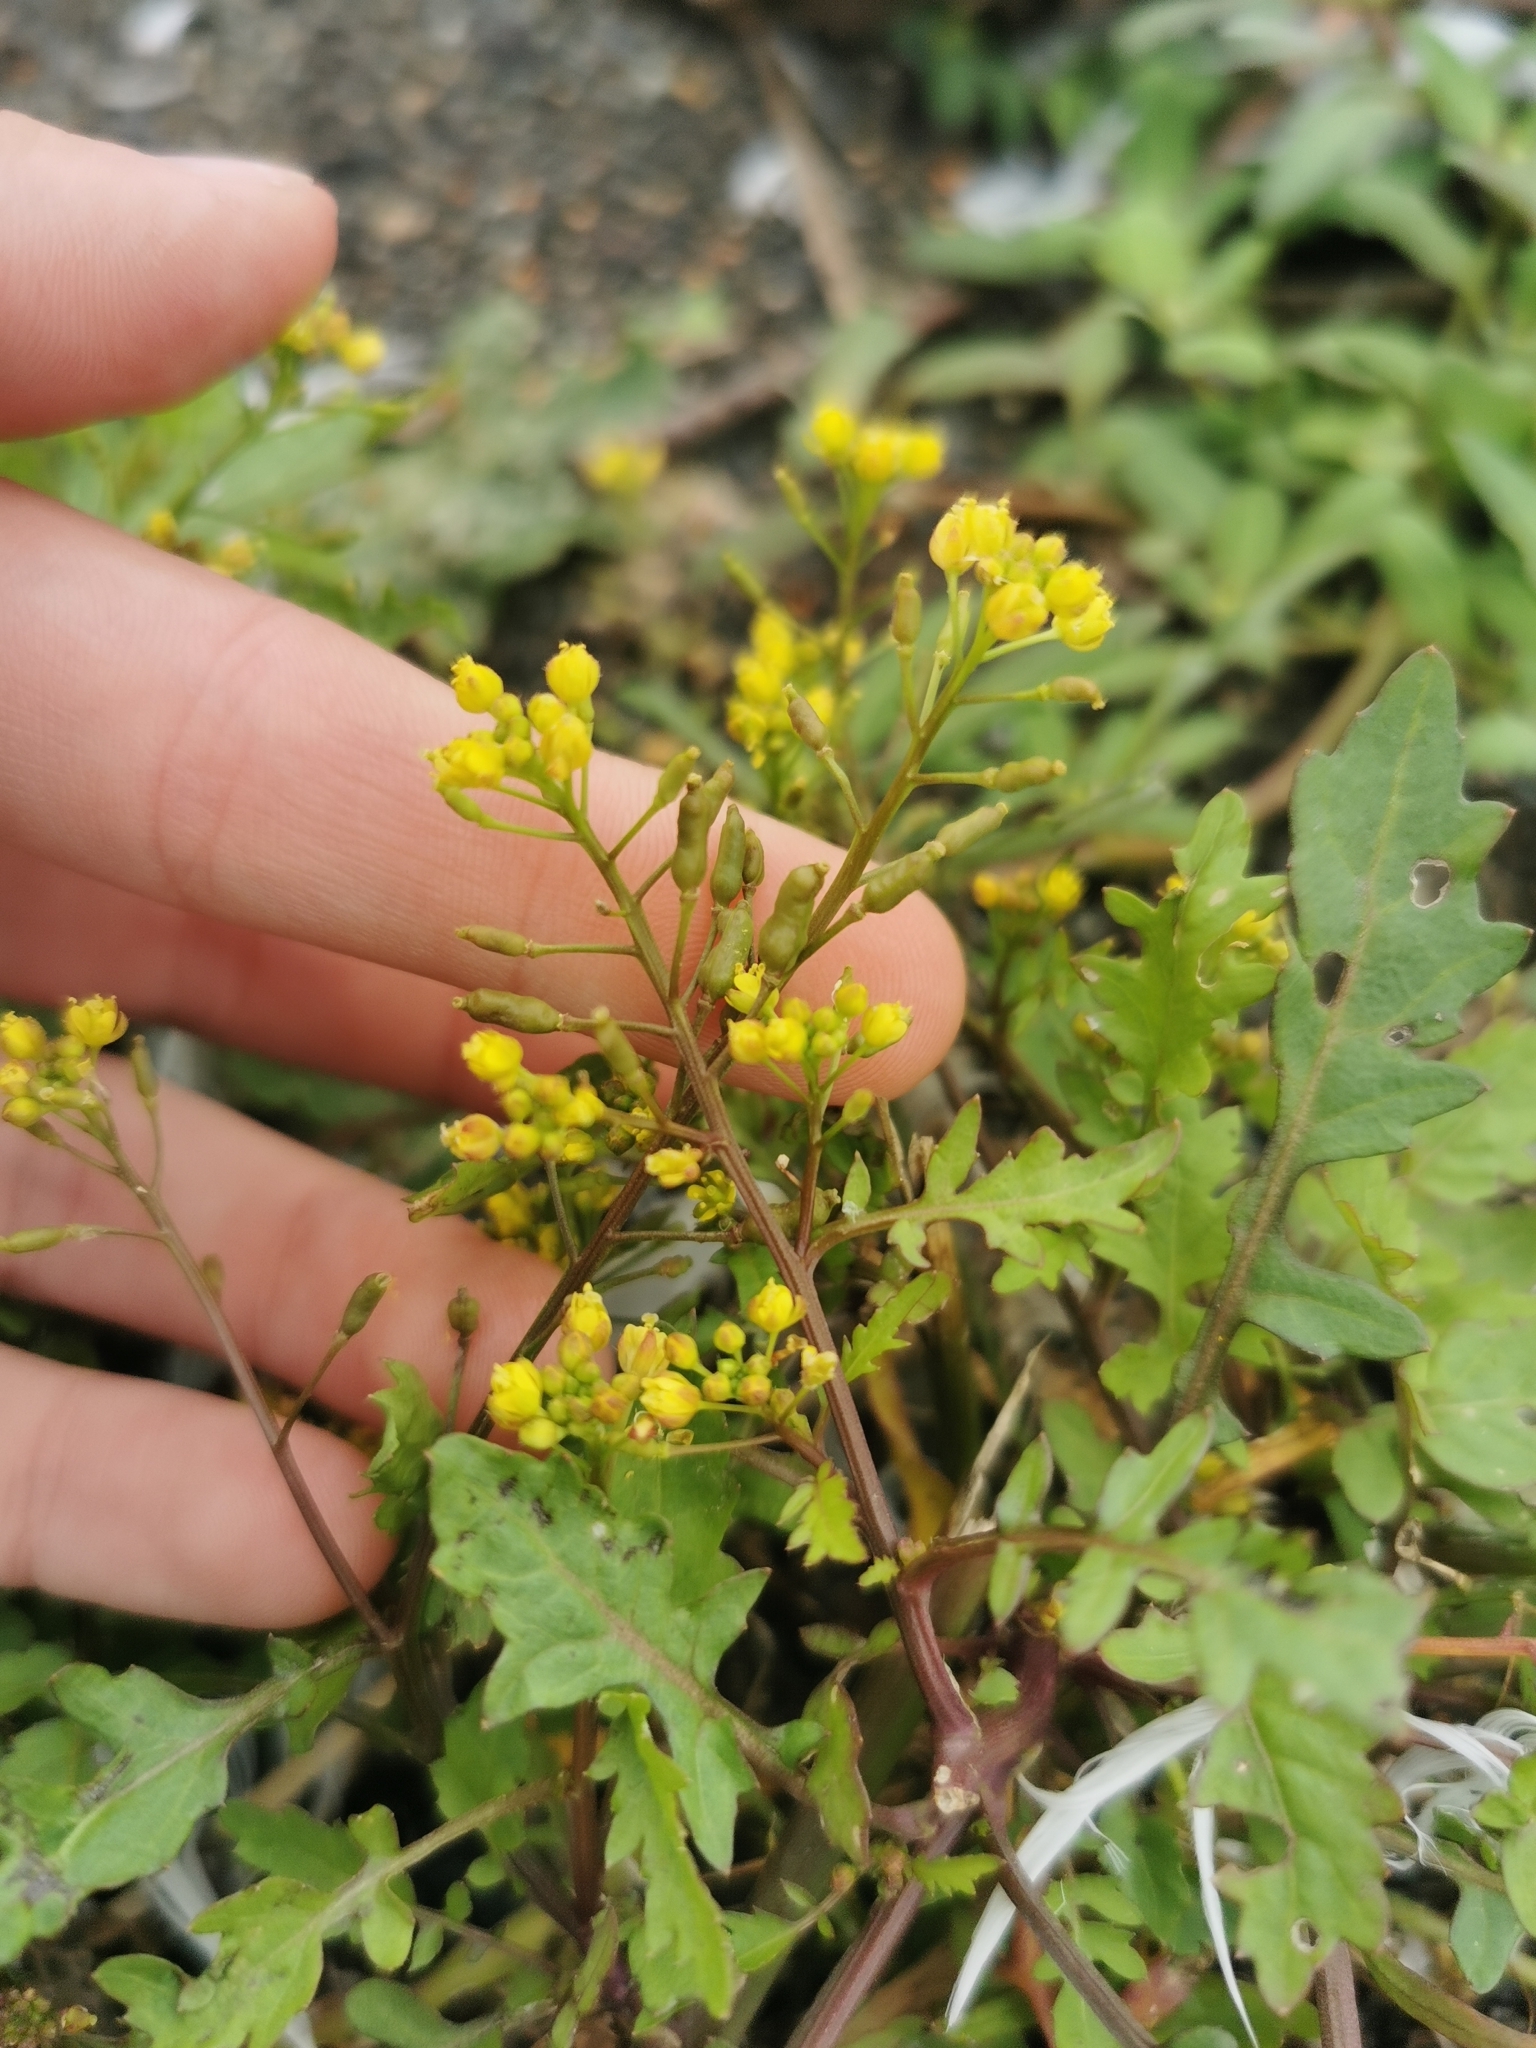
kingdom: Plantae
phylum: Tracheophyta
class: Magnoliopsida
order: Brassicales
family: Brassicaceae
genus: Rorippa
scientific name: Rorippa palustris
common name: Marsh yellow-cress
